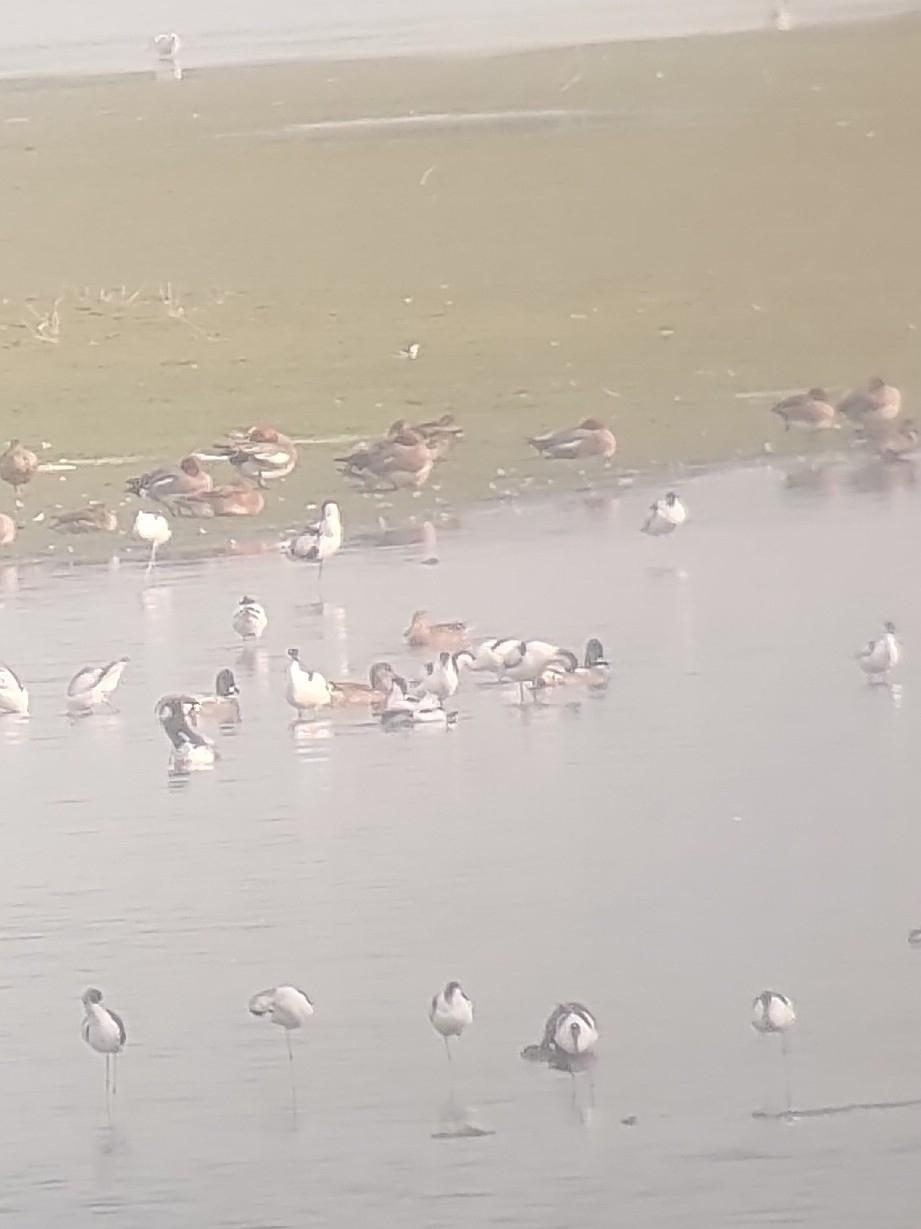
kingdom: Animalia
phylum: Chordata
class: Aves
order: Anseriformes
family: Anatidae
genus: Mareca
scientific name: Mareca penelope
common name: Eurasian wigeon
